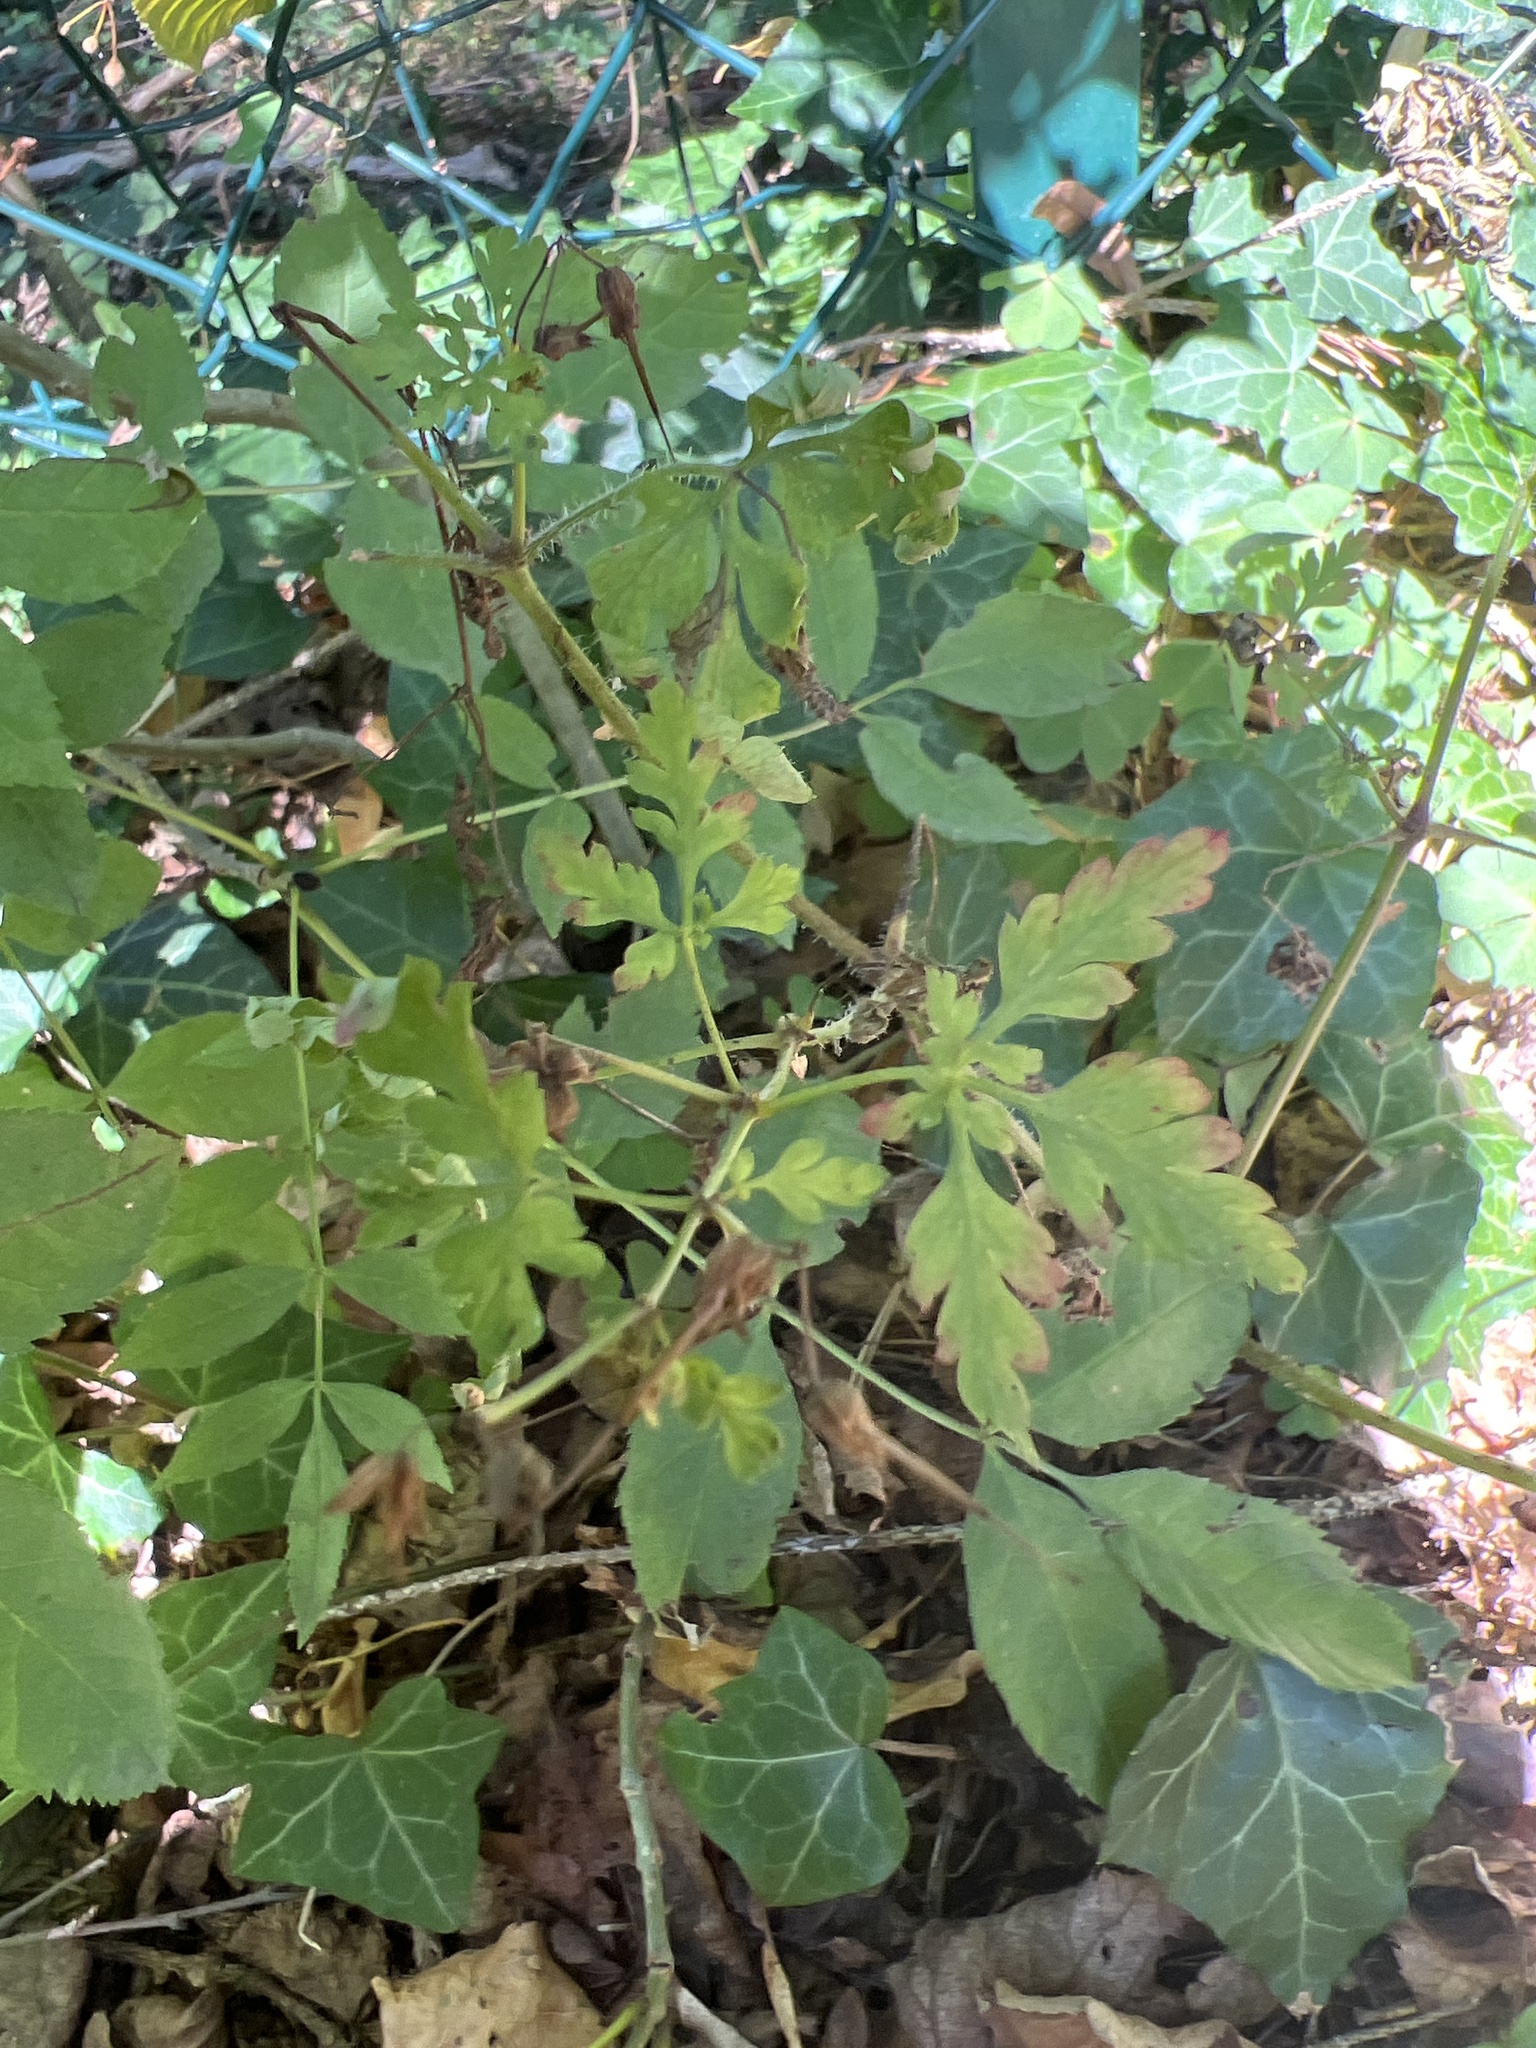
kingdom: Plantae
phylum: Tracheophyta
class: Magnoliopsida
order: Geraniales
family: Geraniaceae
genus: Geranium
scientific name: Geranium robertianum
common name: Herb-robert
